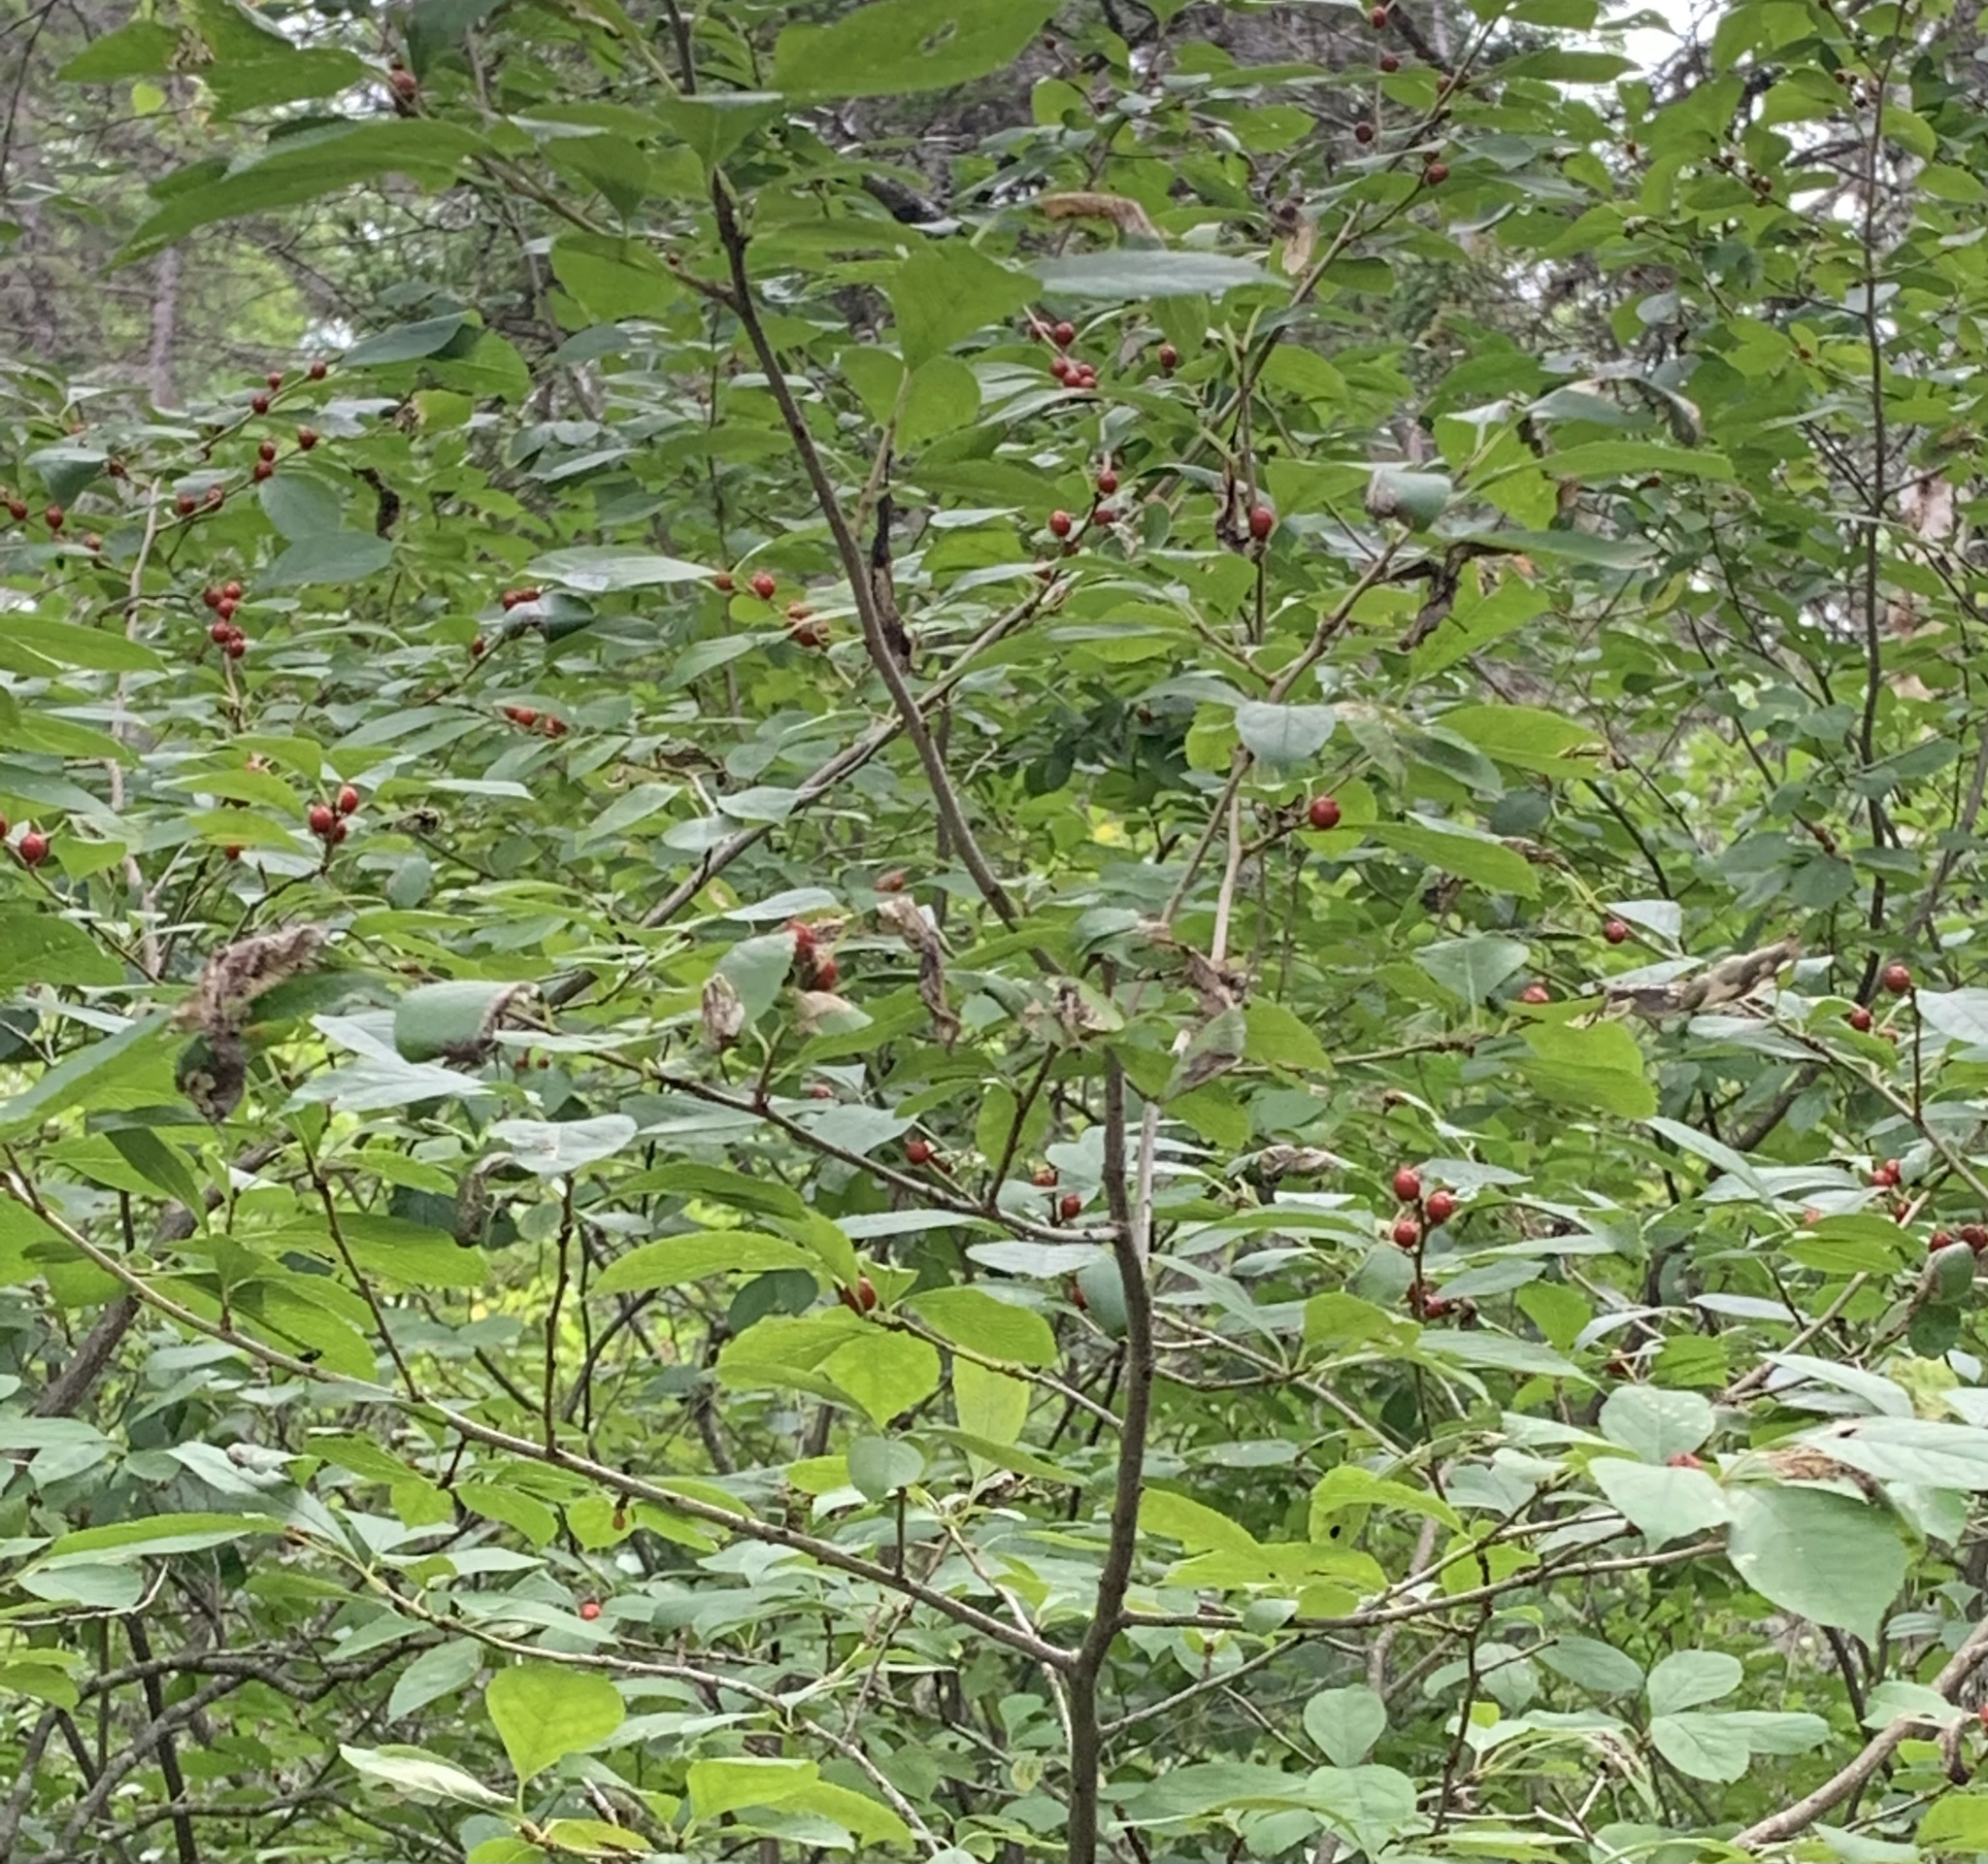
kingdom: Plantae
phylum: Tracheophyta
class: Magnoliopsida
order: Aquifoliales
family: Aquifoliaceae
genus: Ilex
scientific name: Ilex verticillata
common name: Virginia winterberry
